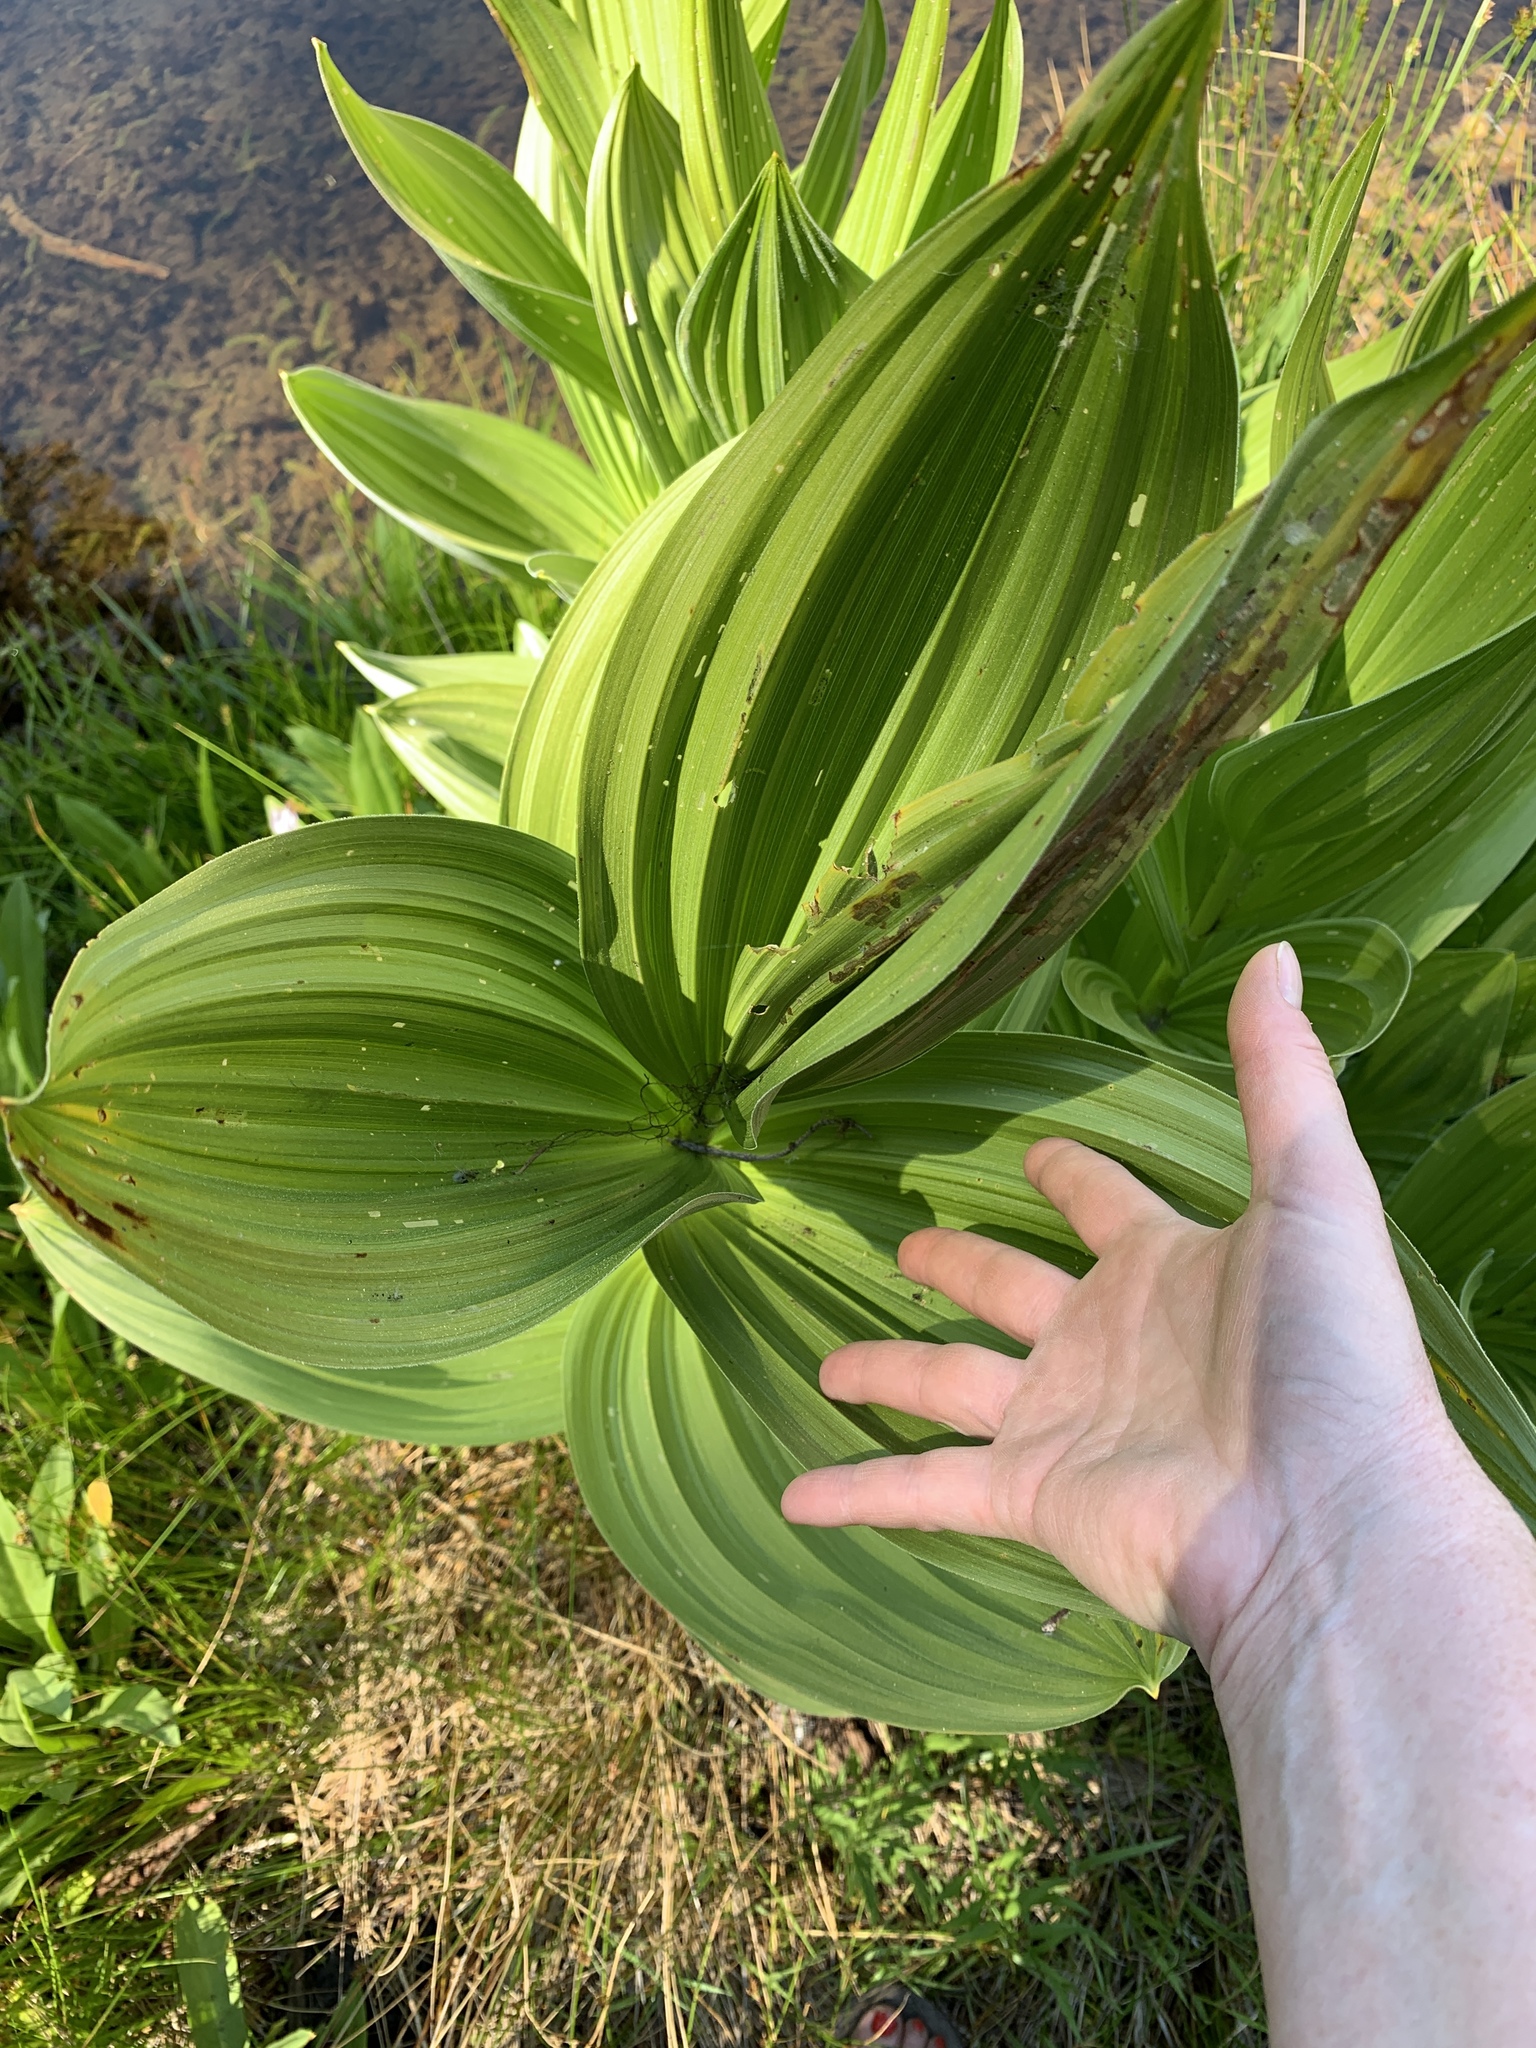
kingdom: Plantae
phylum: Tracheophyta
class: Liliopsida
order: Liliales
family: Melanthiaceae
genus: Veratrum
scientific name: Veratrum californicum
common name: California veratrum
